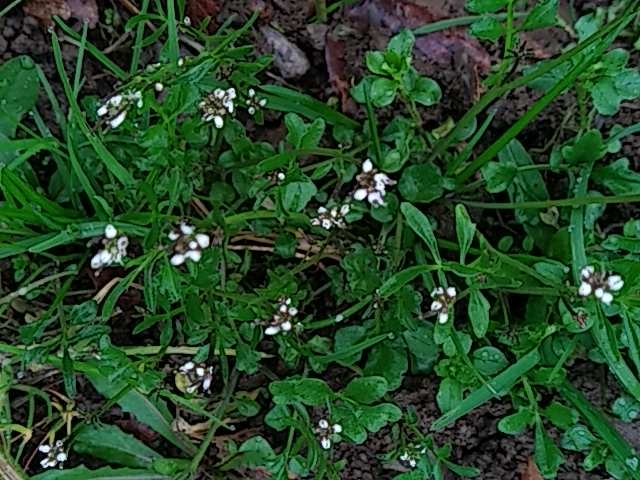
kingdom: Plantae
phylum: Tracheophyta
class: Magnoliopsida
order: Brassicales
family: Brassicaceae
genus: Cardamine
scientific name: Cardamine hirsuta
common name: Hairy bittercress
